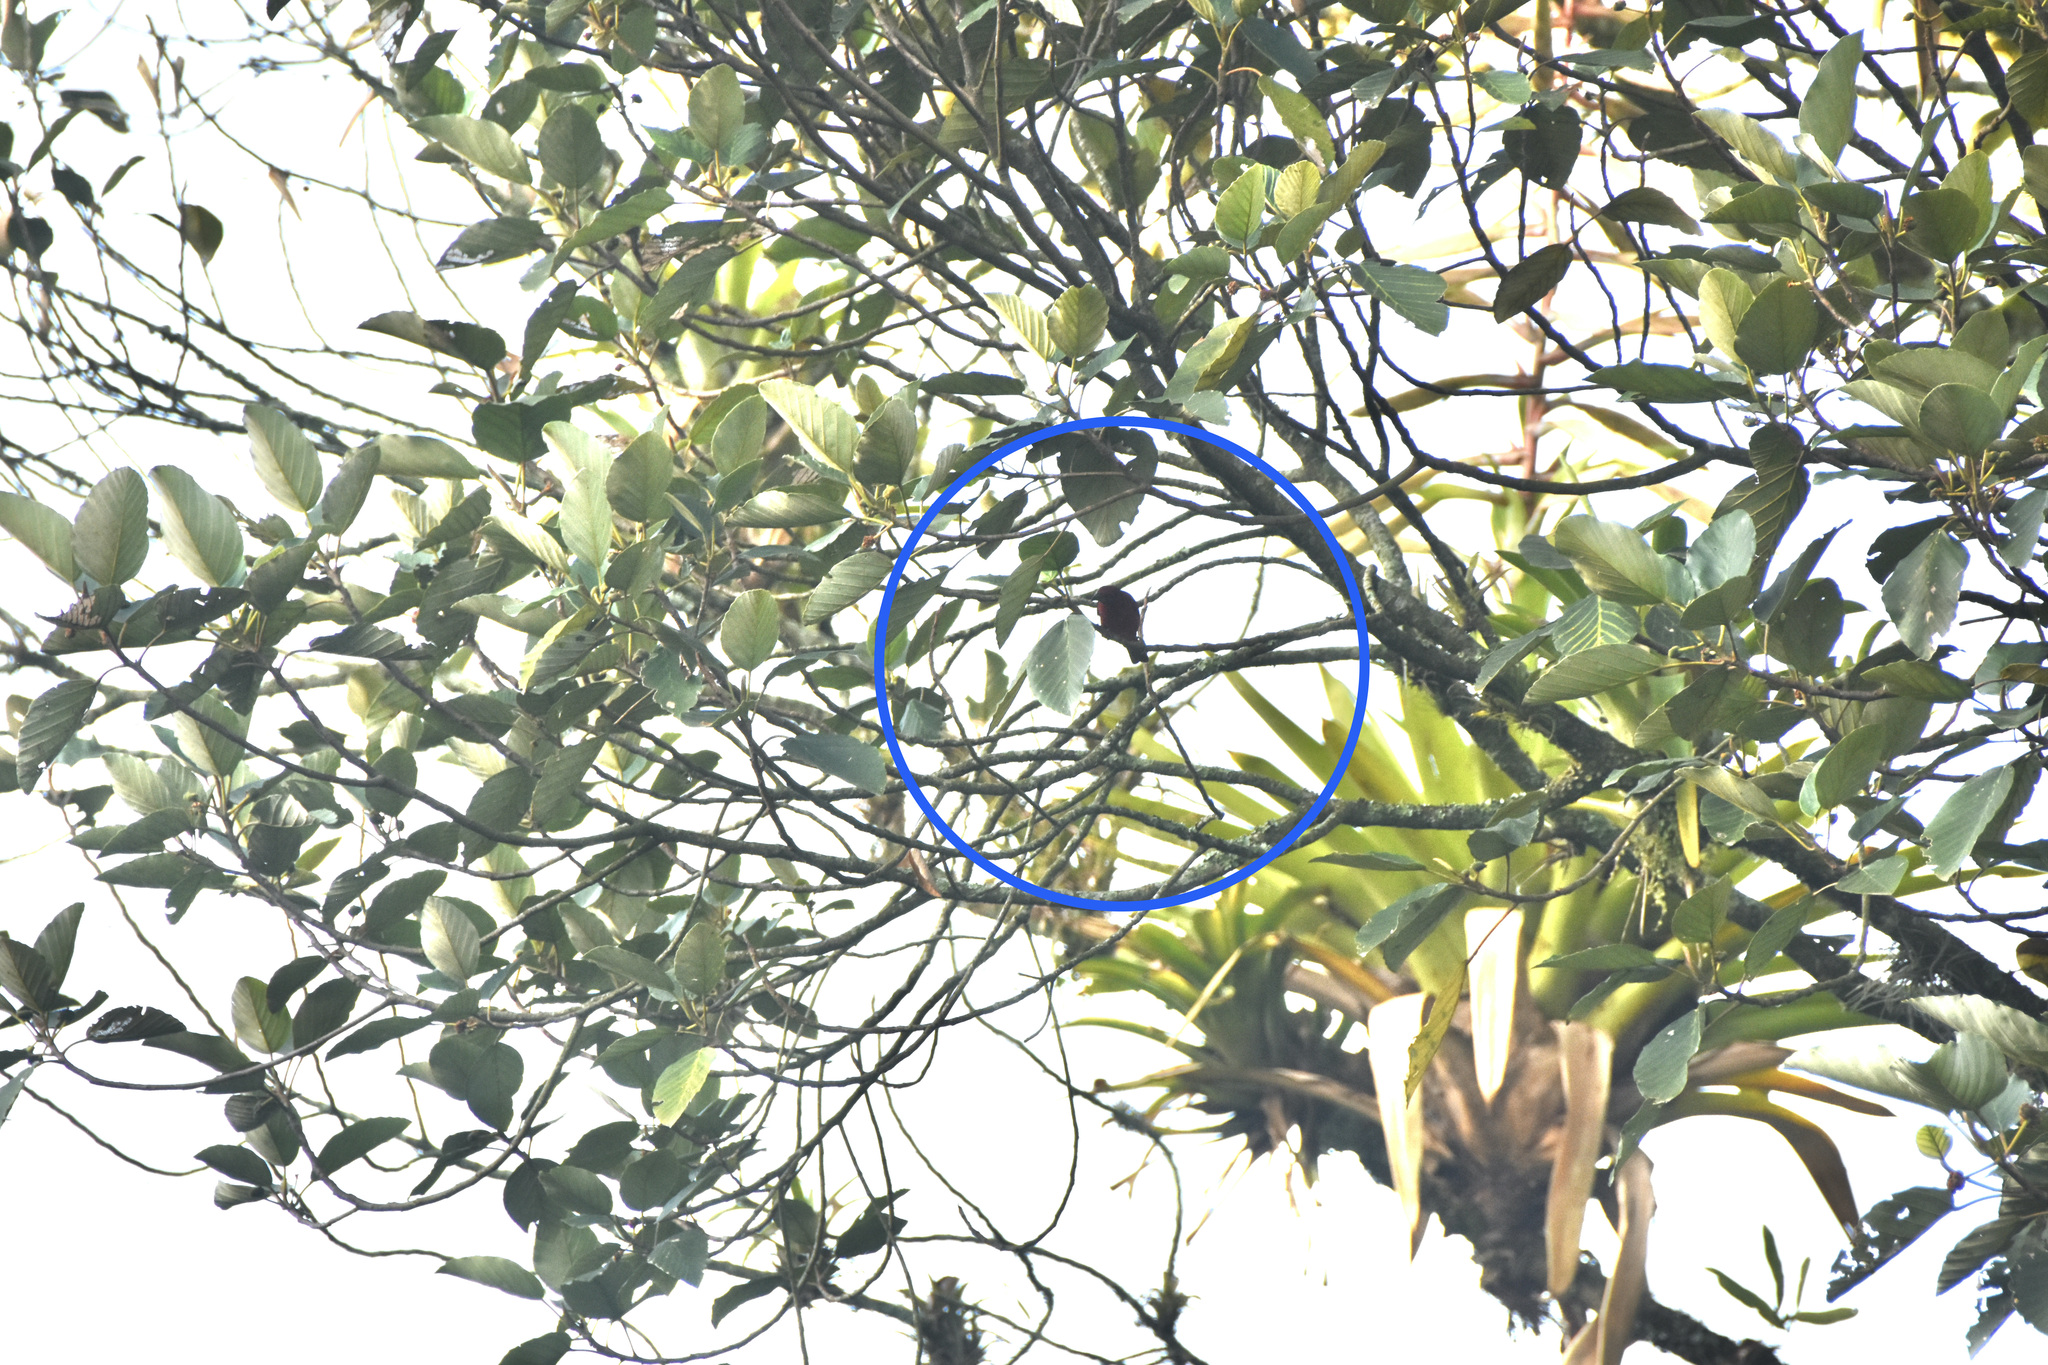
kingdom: Animalia
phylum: Chordata
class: Aves
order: Passeriformes
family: Thraupidae
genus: Ramphocelus
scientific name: Ramphocelus dimidiatus
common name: Crimson-backed tanager
